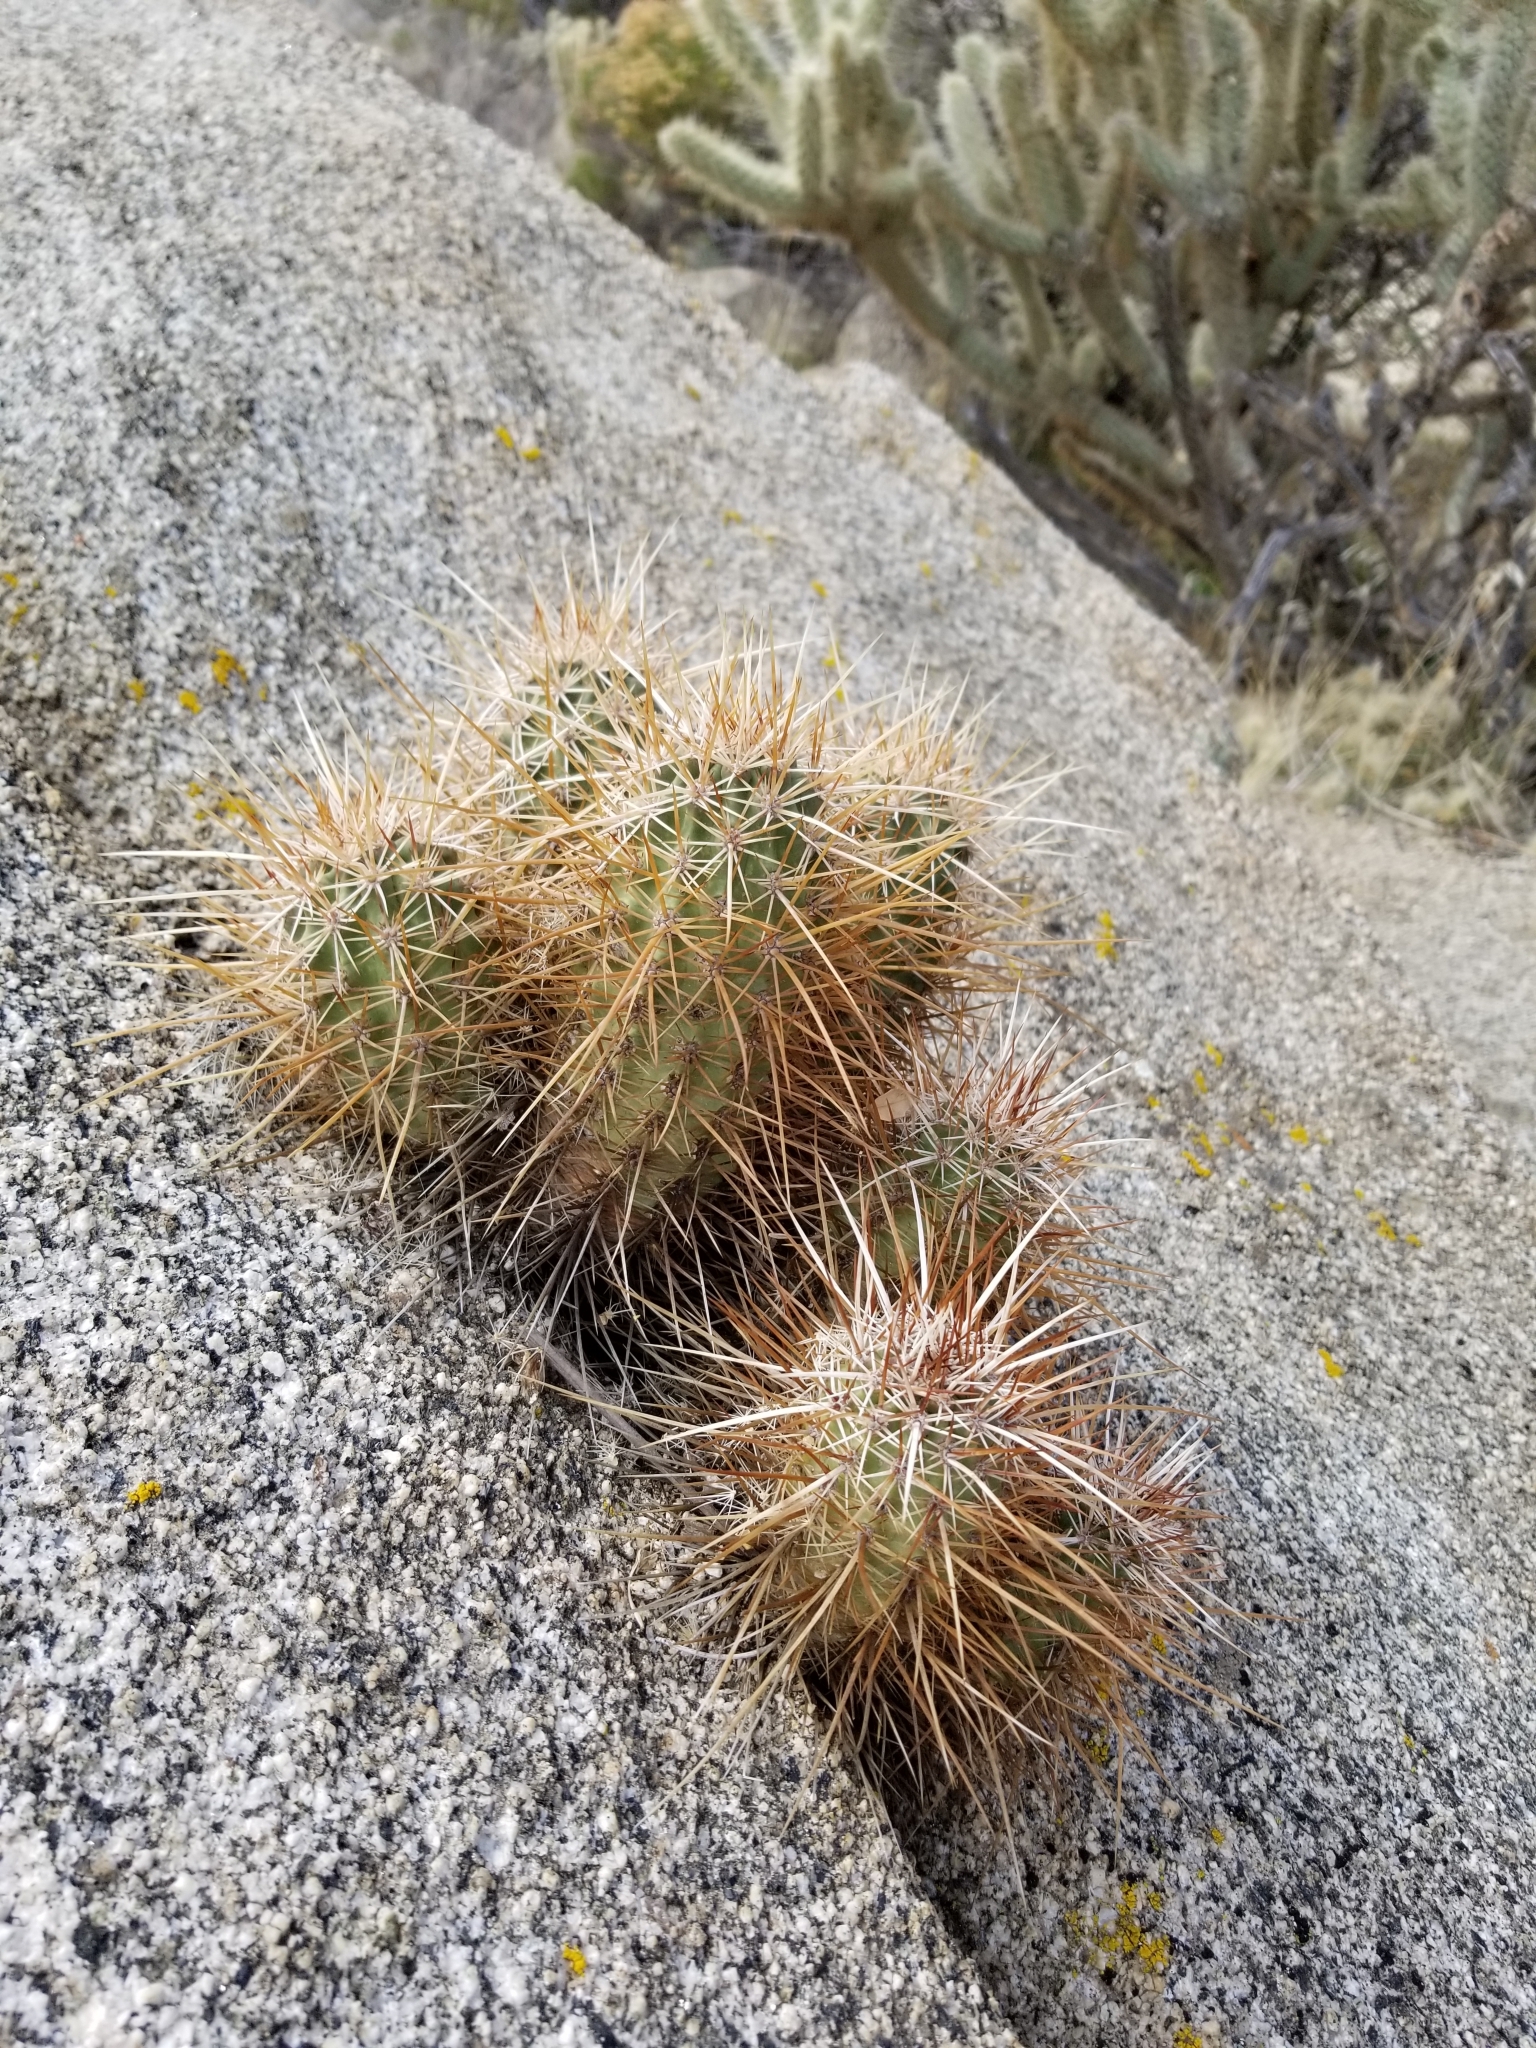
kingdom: Plantae
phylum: Tracheophyta
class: Magnoliopsida
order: Caryophyllales
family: Cactaceae
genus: Echinocereus
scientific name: Echinocereus engelmannii
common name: Engelmann's hedgehog cactus
